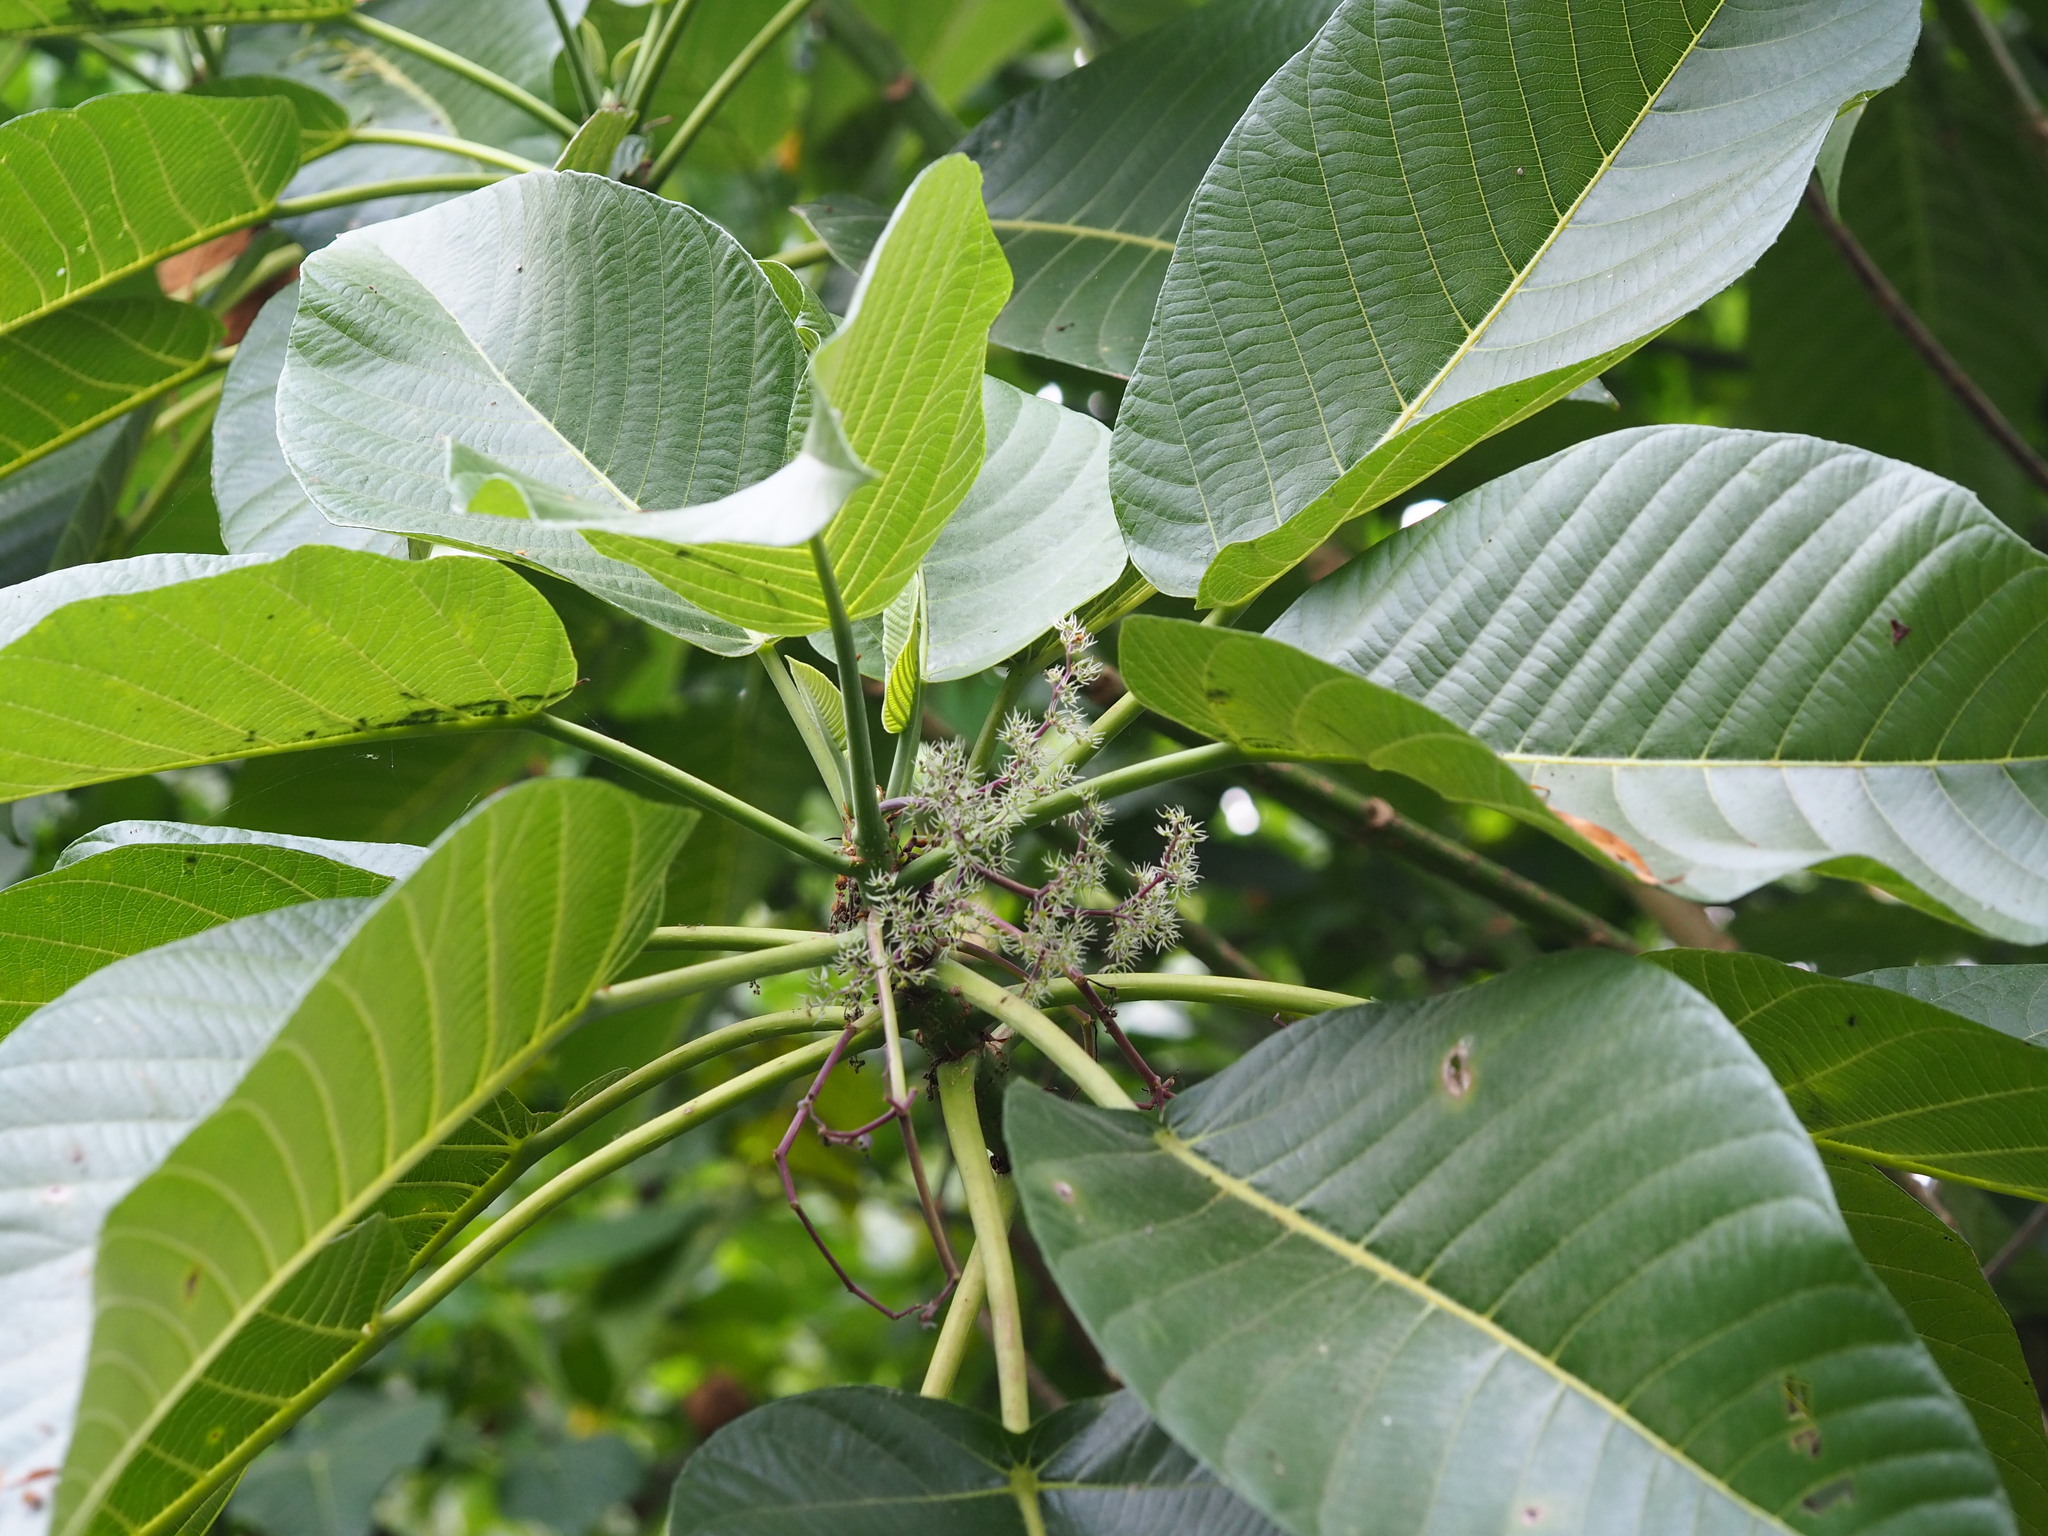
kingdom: Plantae
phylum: Tracheophyta
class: Magnoliopsida
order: Rosales
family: Urticaceae
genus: Dendrocnide
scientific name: Dendrocnide meyeniana
